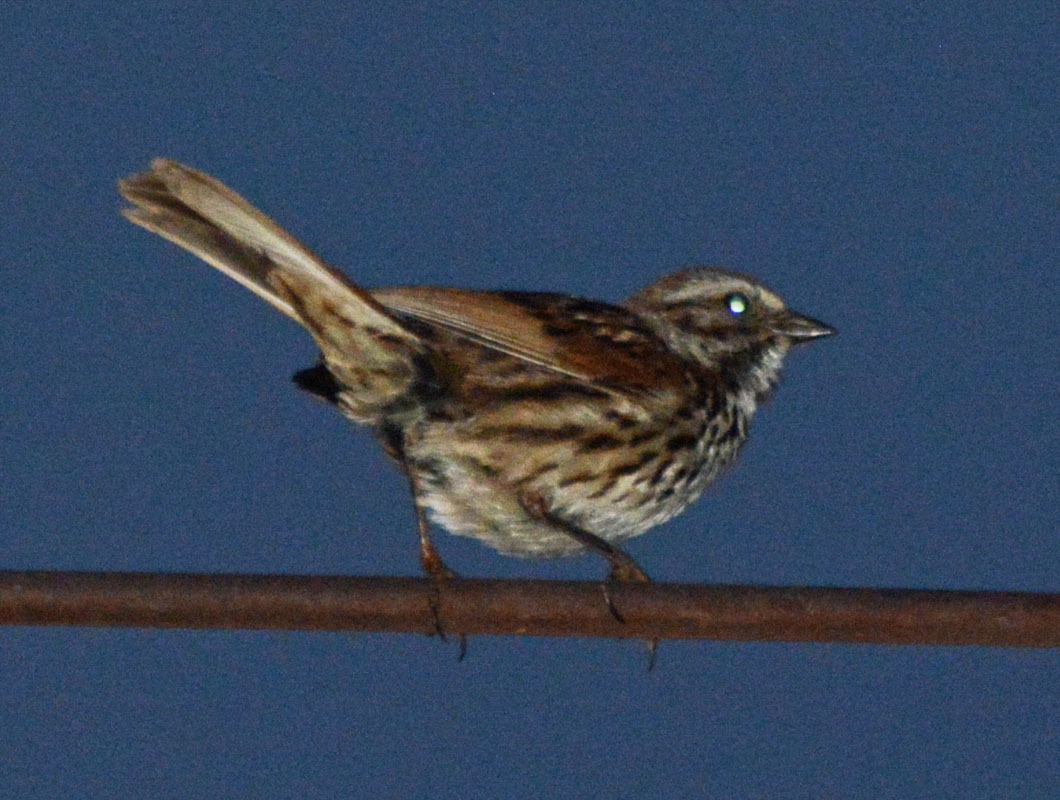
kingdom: Animalia
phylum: Chordata
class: Aves
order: Passeriformes
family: Passerellidae
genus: Melospiza
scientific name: Melospiza melodia
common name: Song sparrow
